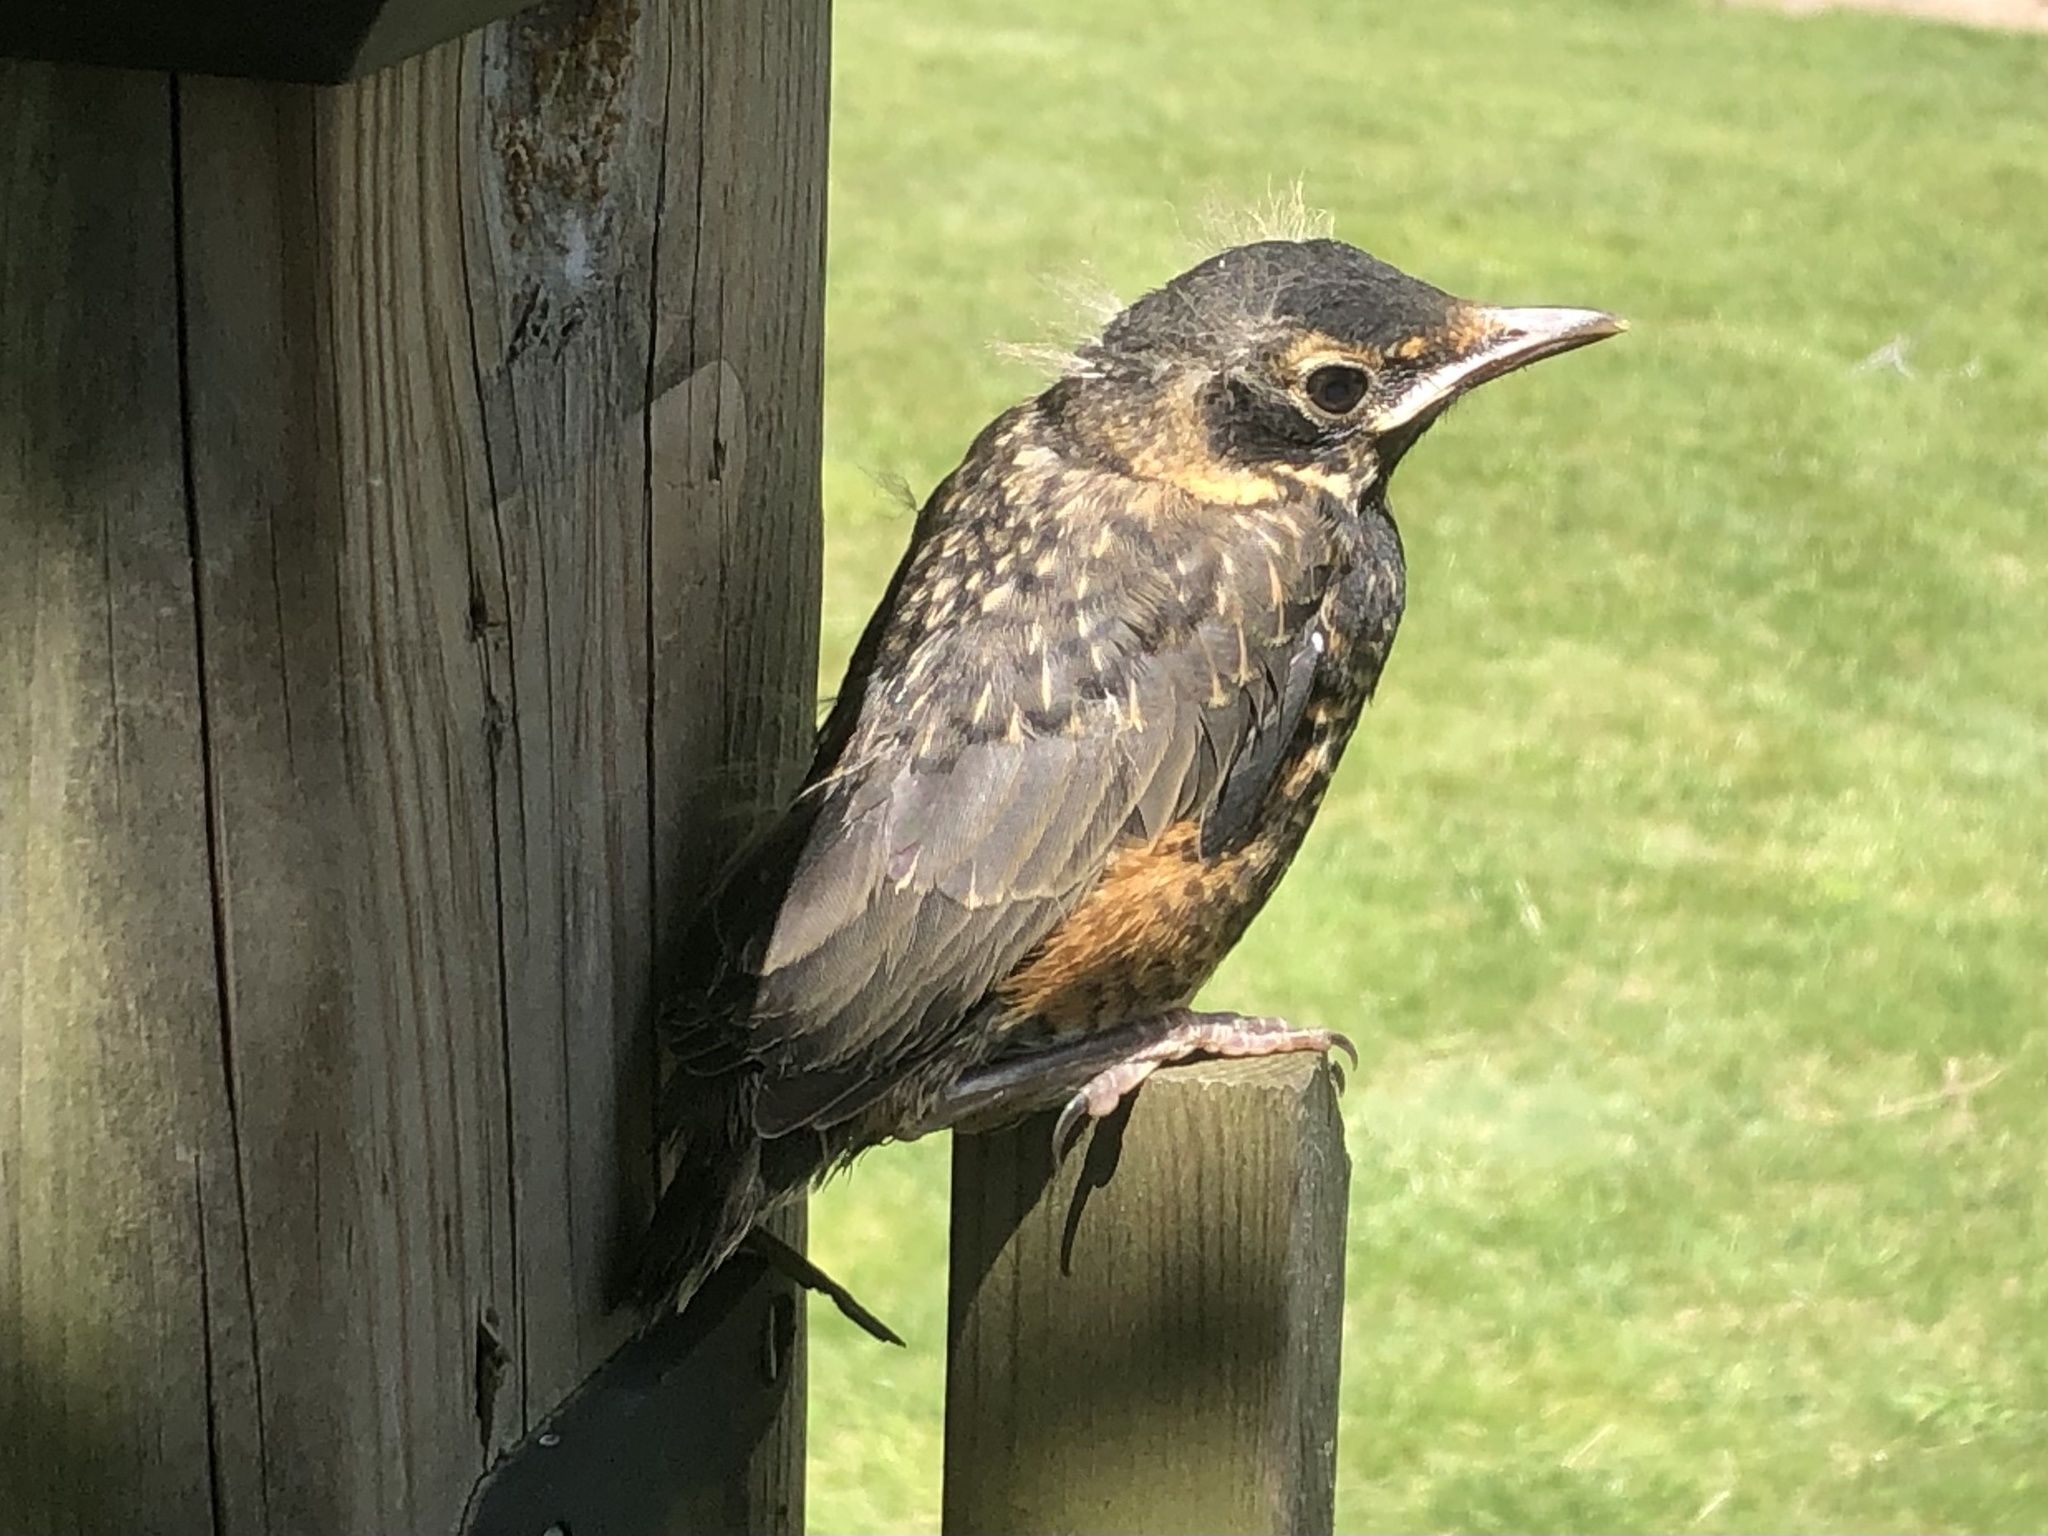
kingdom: Animalia
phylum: Chordata
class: Aves
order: Passeriformes
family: Turdidae
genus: Turdus
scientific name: Turdus migratorius
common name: American robin
